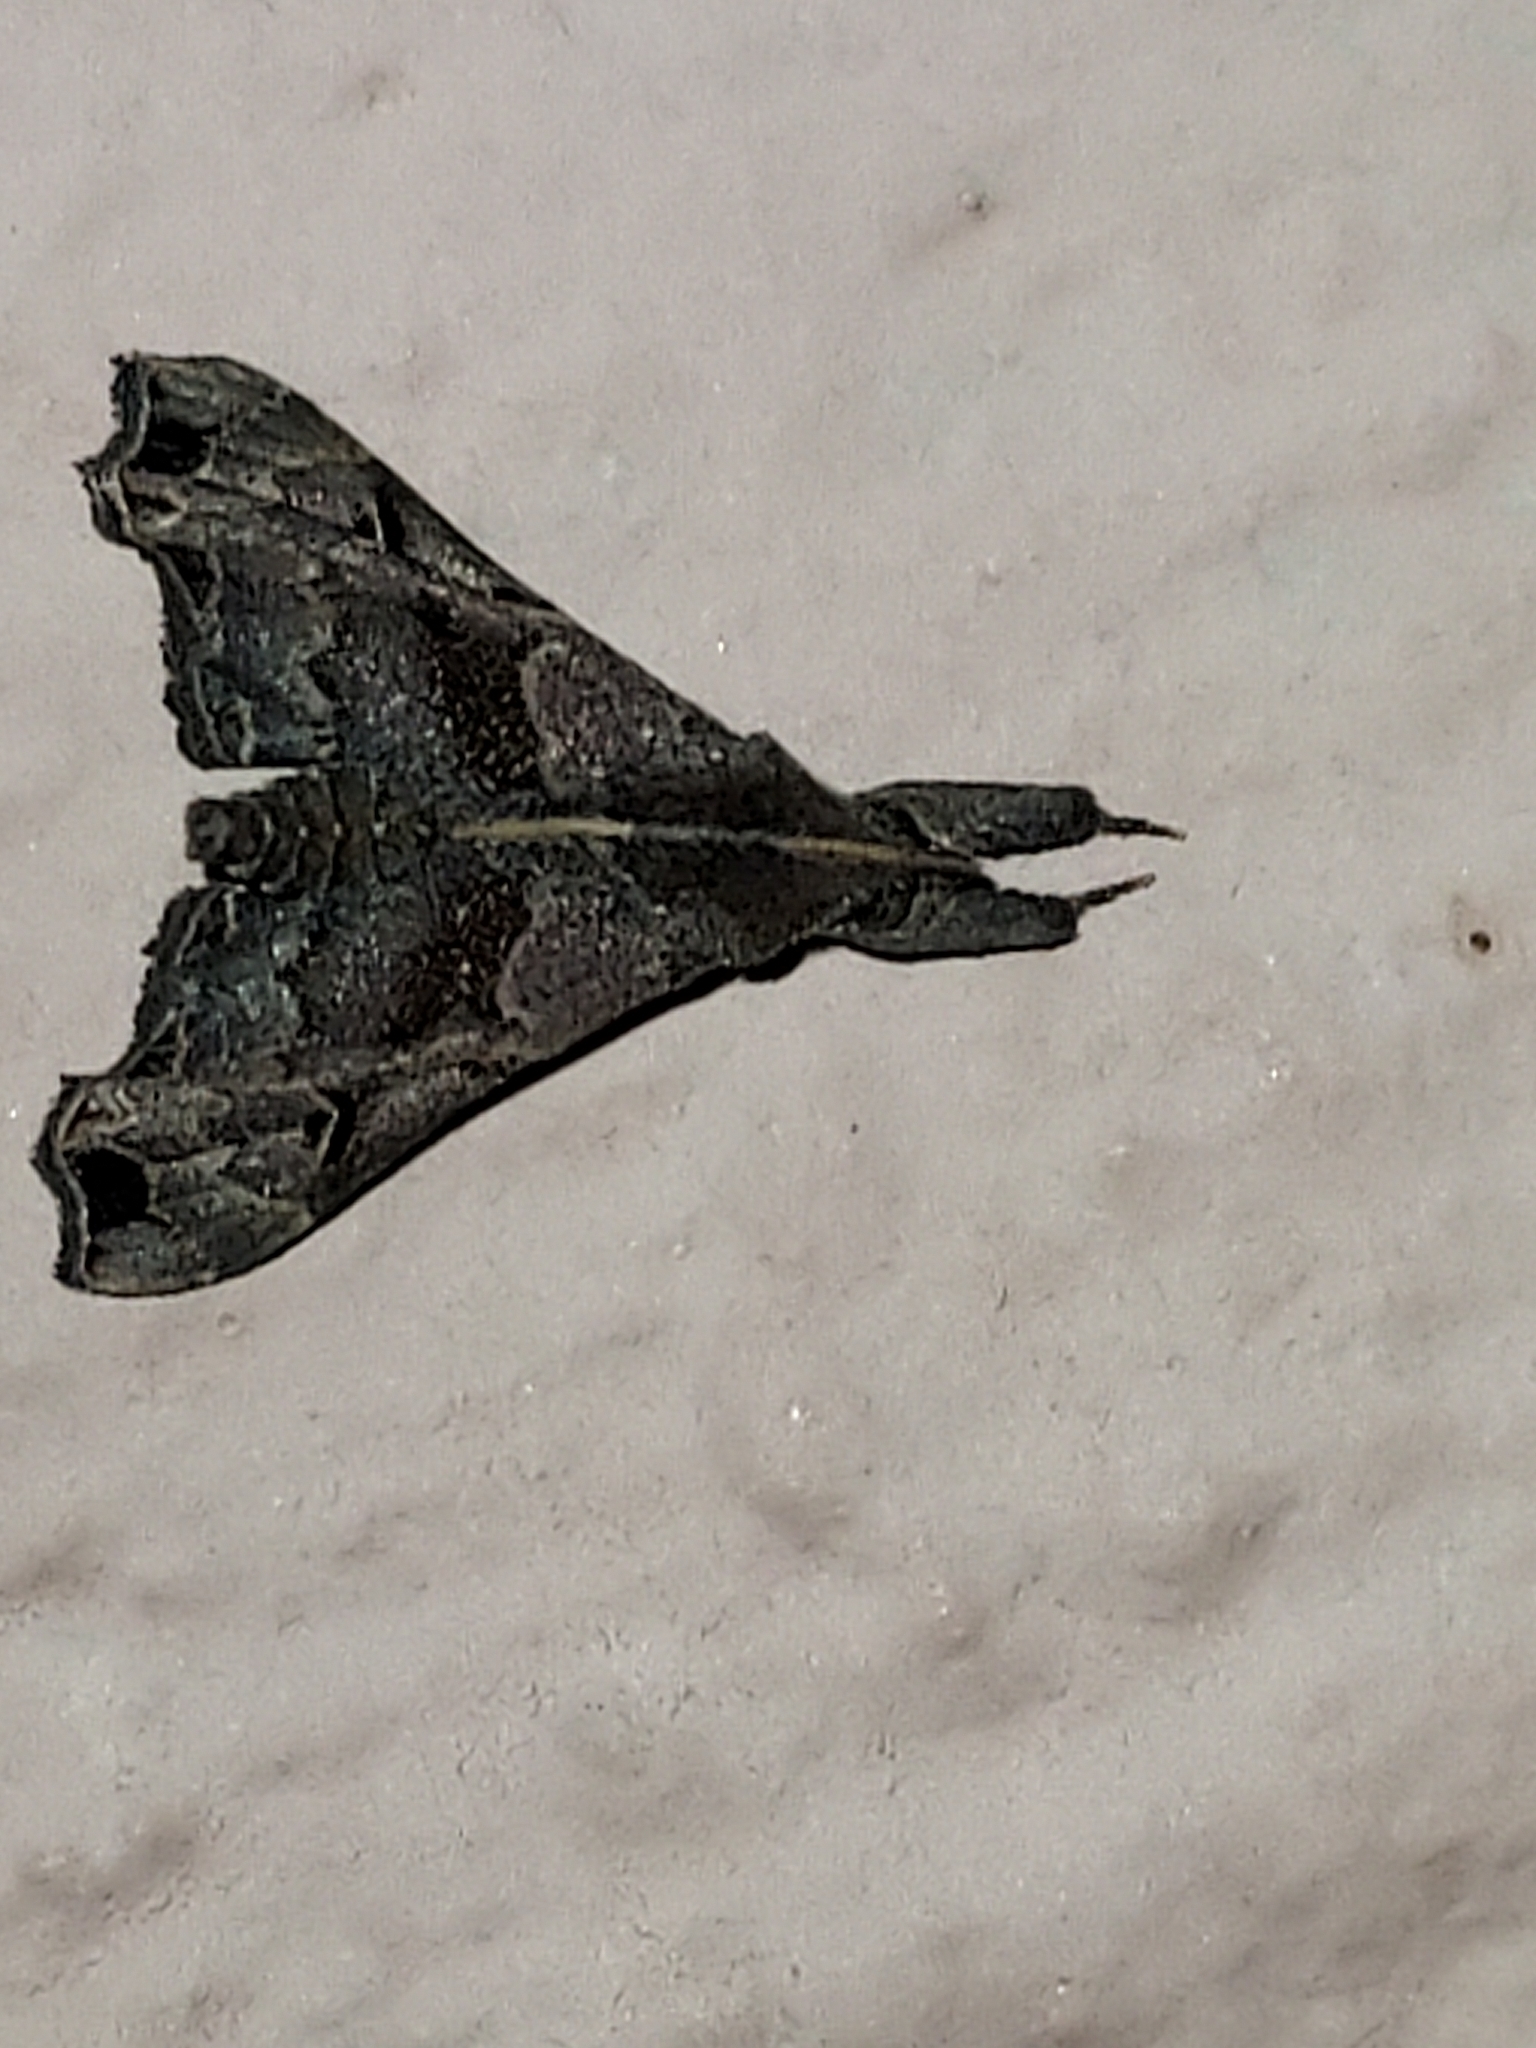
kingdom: Animalia
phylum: Arthropoda
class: Insecta
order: Lepidoptera
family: Erebidae
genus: Palthis
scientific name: Palthis asopialis
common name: Faint-spotted palthis moth
